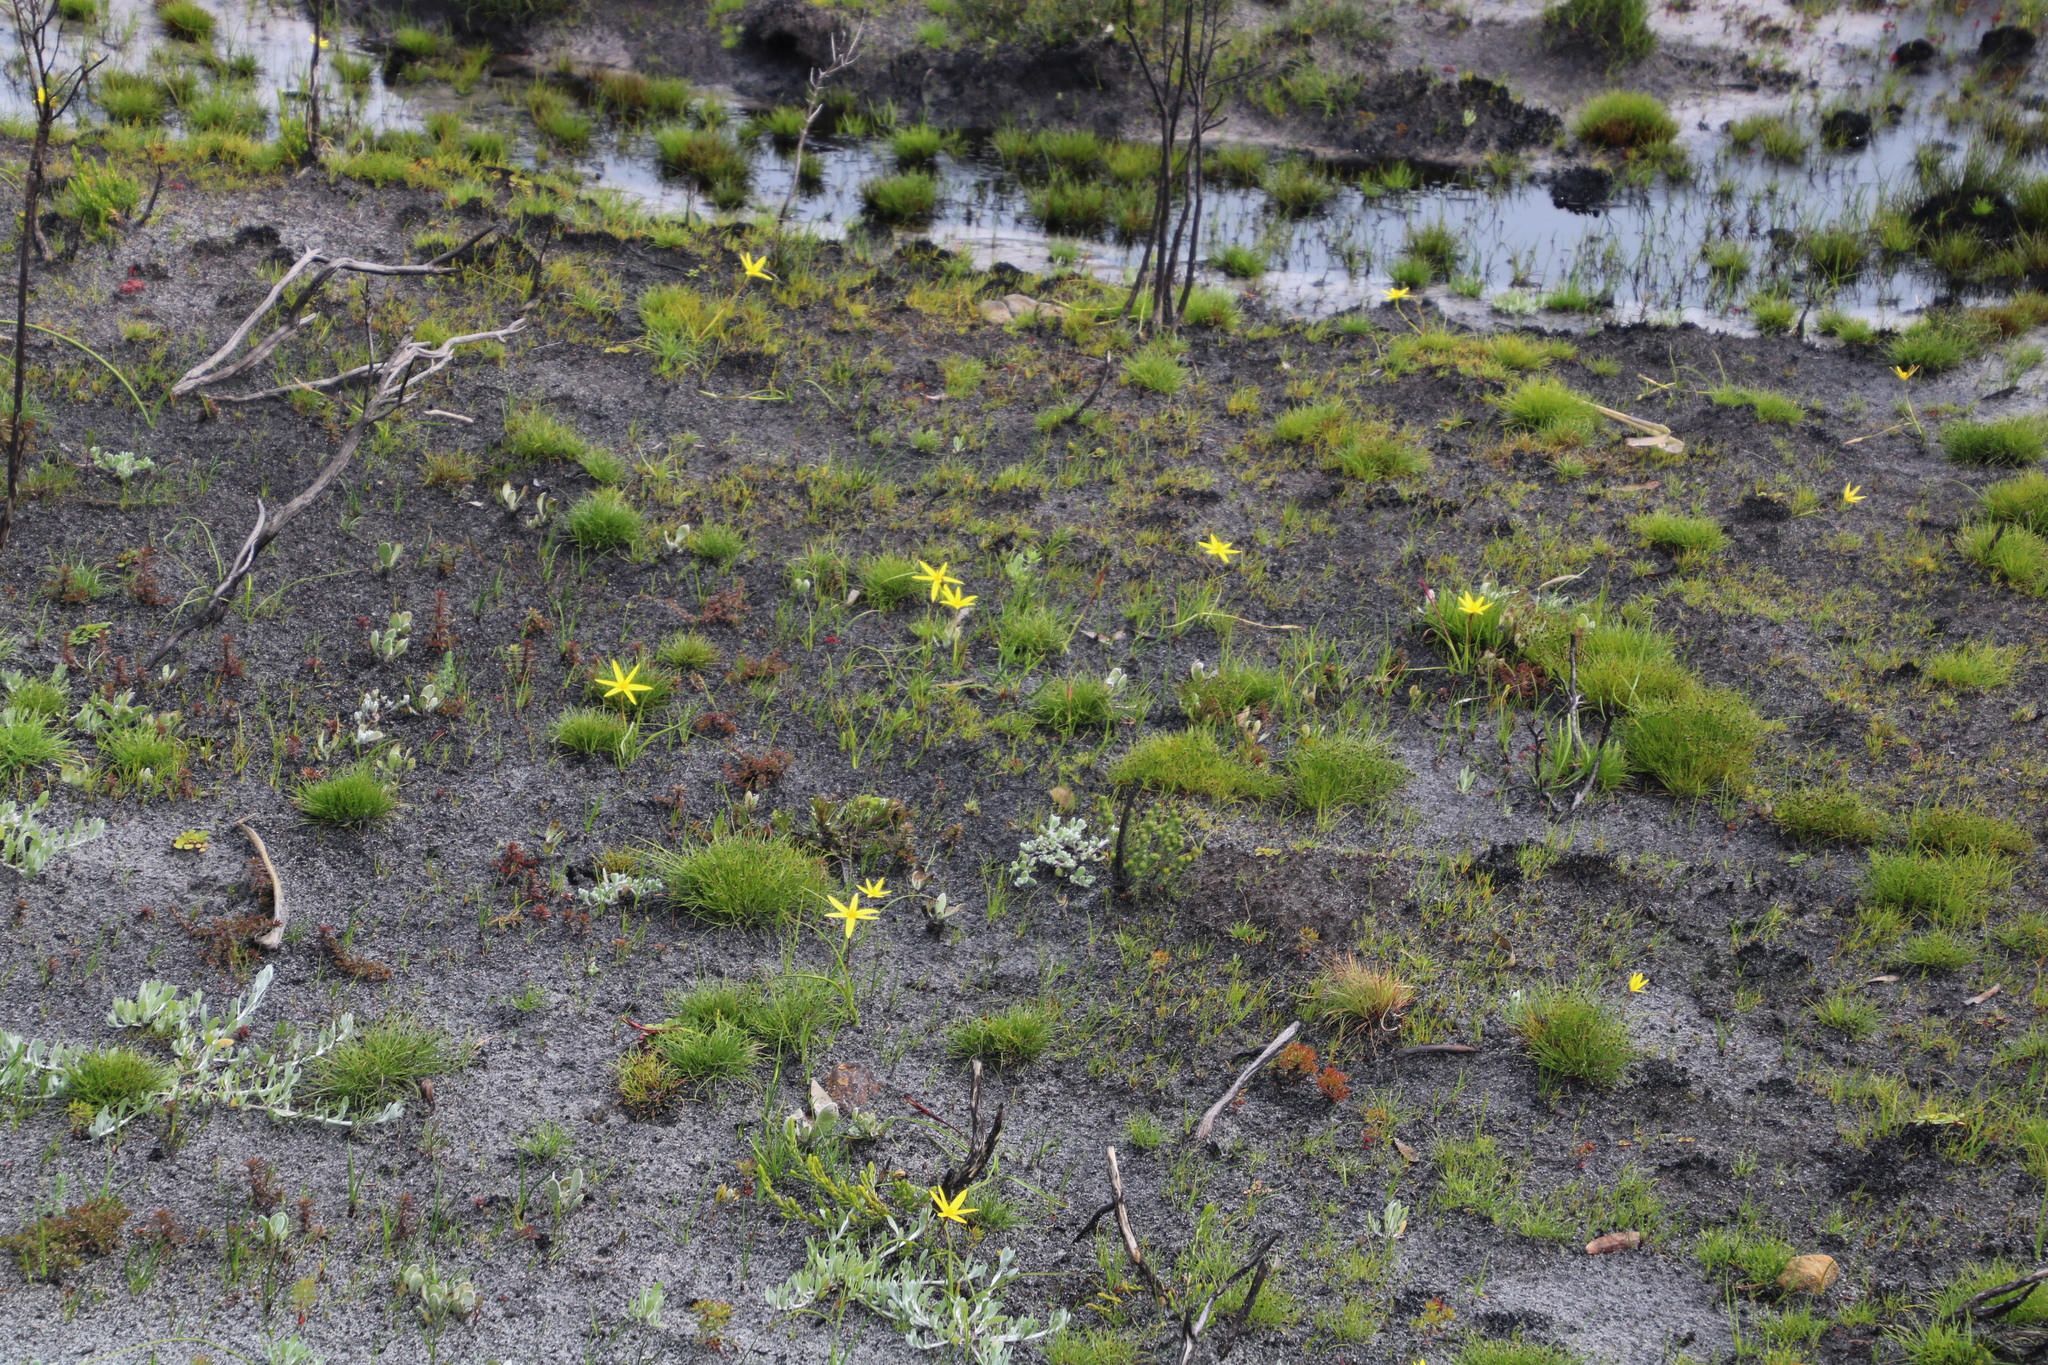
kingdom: Plantae
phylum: Tracheophyta
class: Liliopsida
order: Asparagales
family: Hypoxidaceae
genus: Pauridia
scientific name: Pauridia capensis
